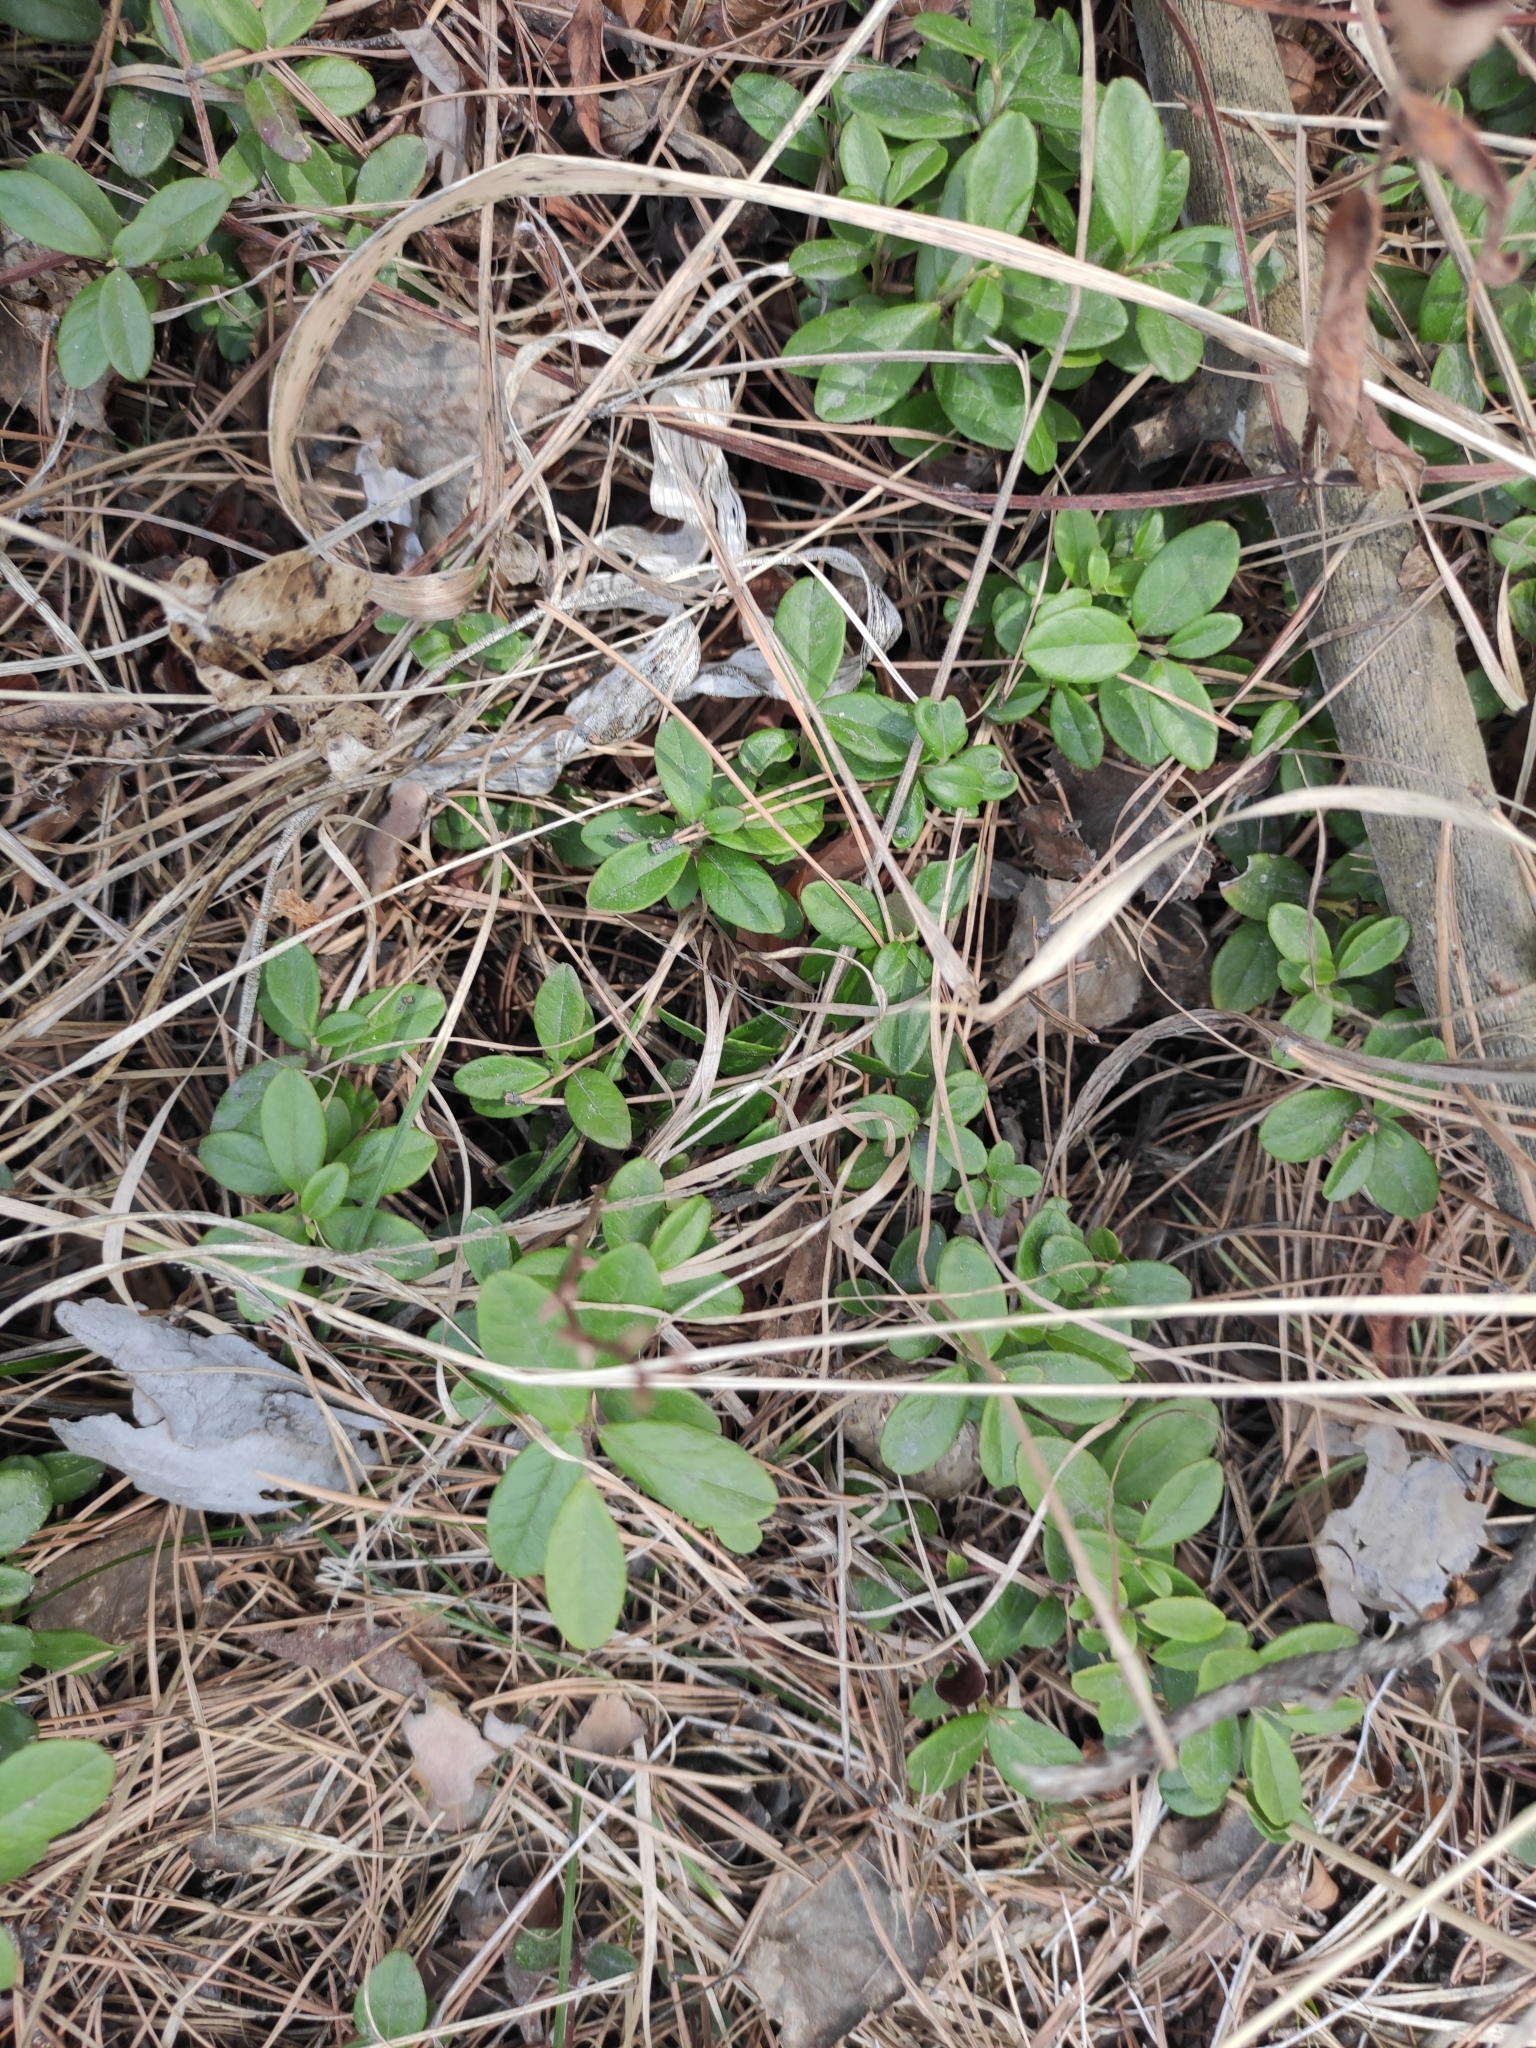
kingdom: Plantae
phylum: Tracheophyta
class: Magnoliopsida
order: Ericales
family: Ericaceae
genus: Vaccinium
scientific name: Vaccinium vitis-idaea
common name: Cowberry
